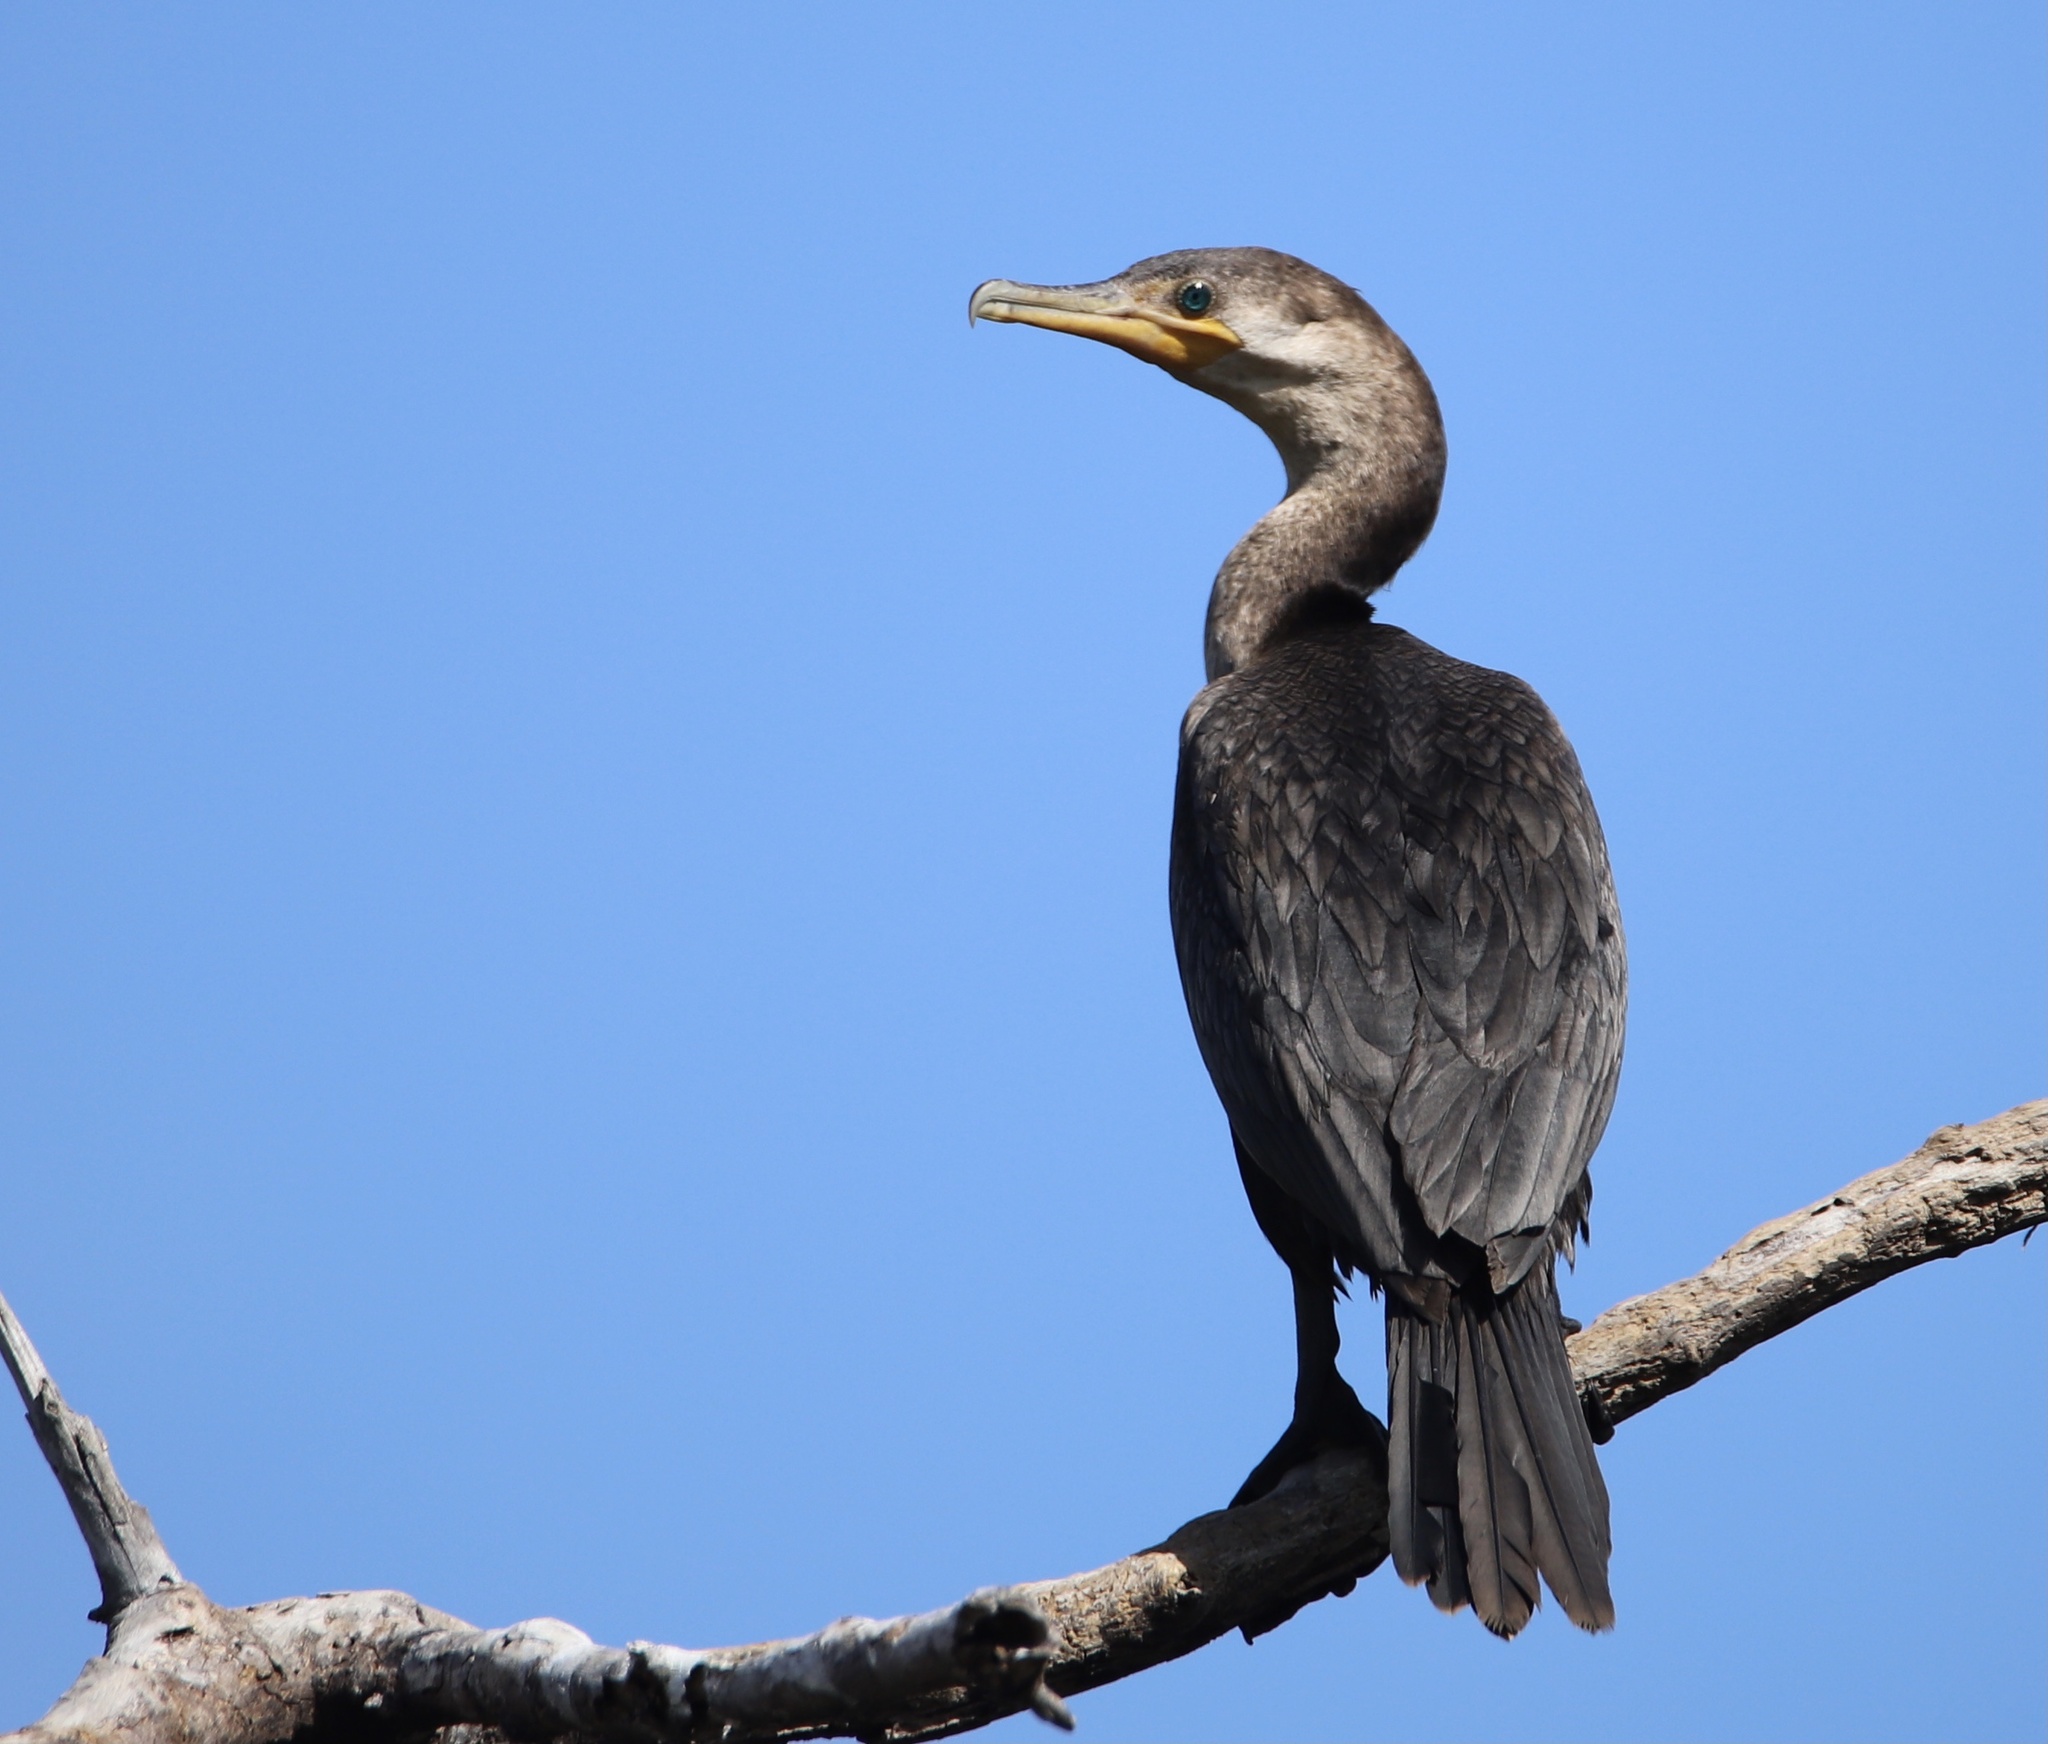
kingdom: Animalia
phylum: Chordata
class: Aves
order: Suliformes
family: Phalacrocoracidae
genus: Phalacrocorax
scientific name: Phalacrocorax brasilianus
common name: Neotropic cormorant
